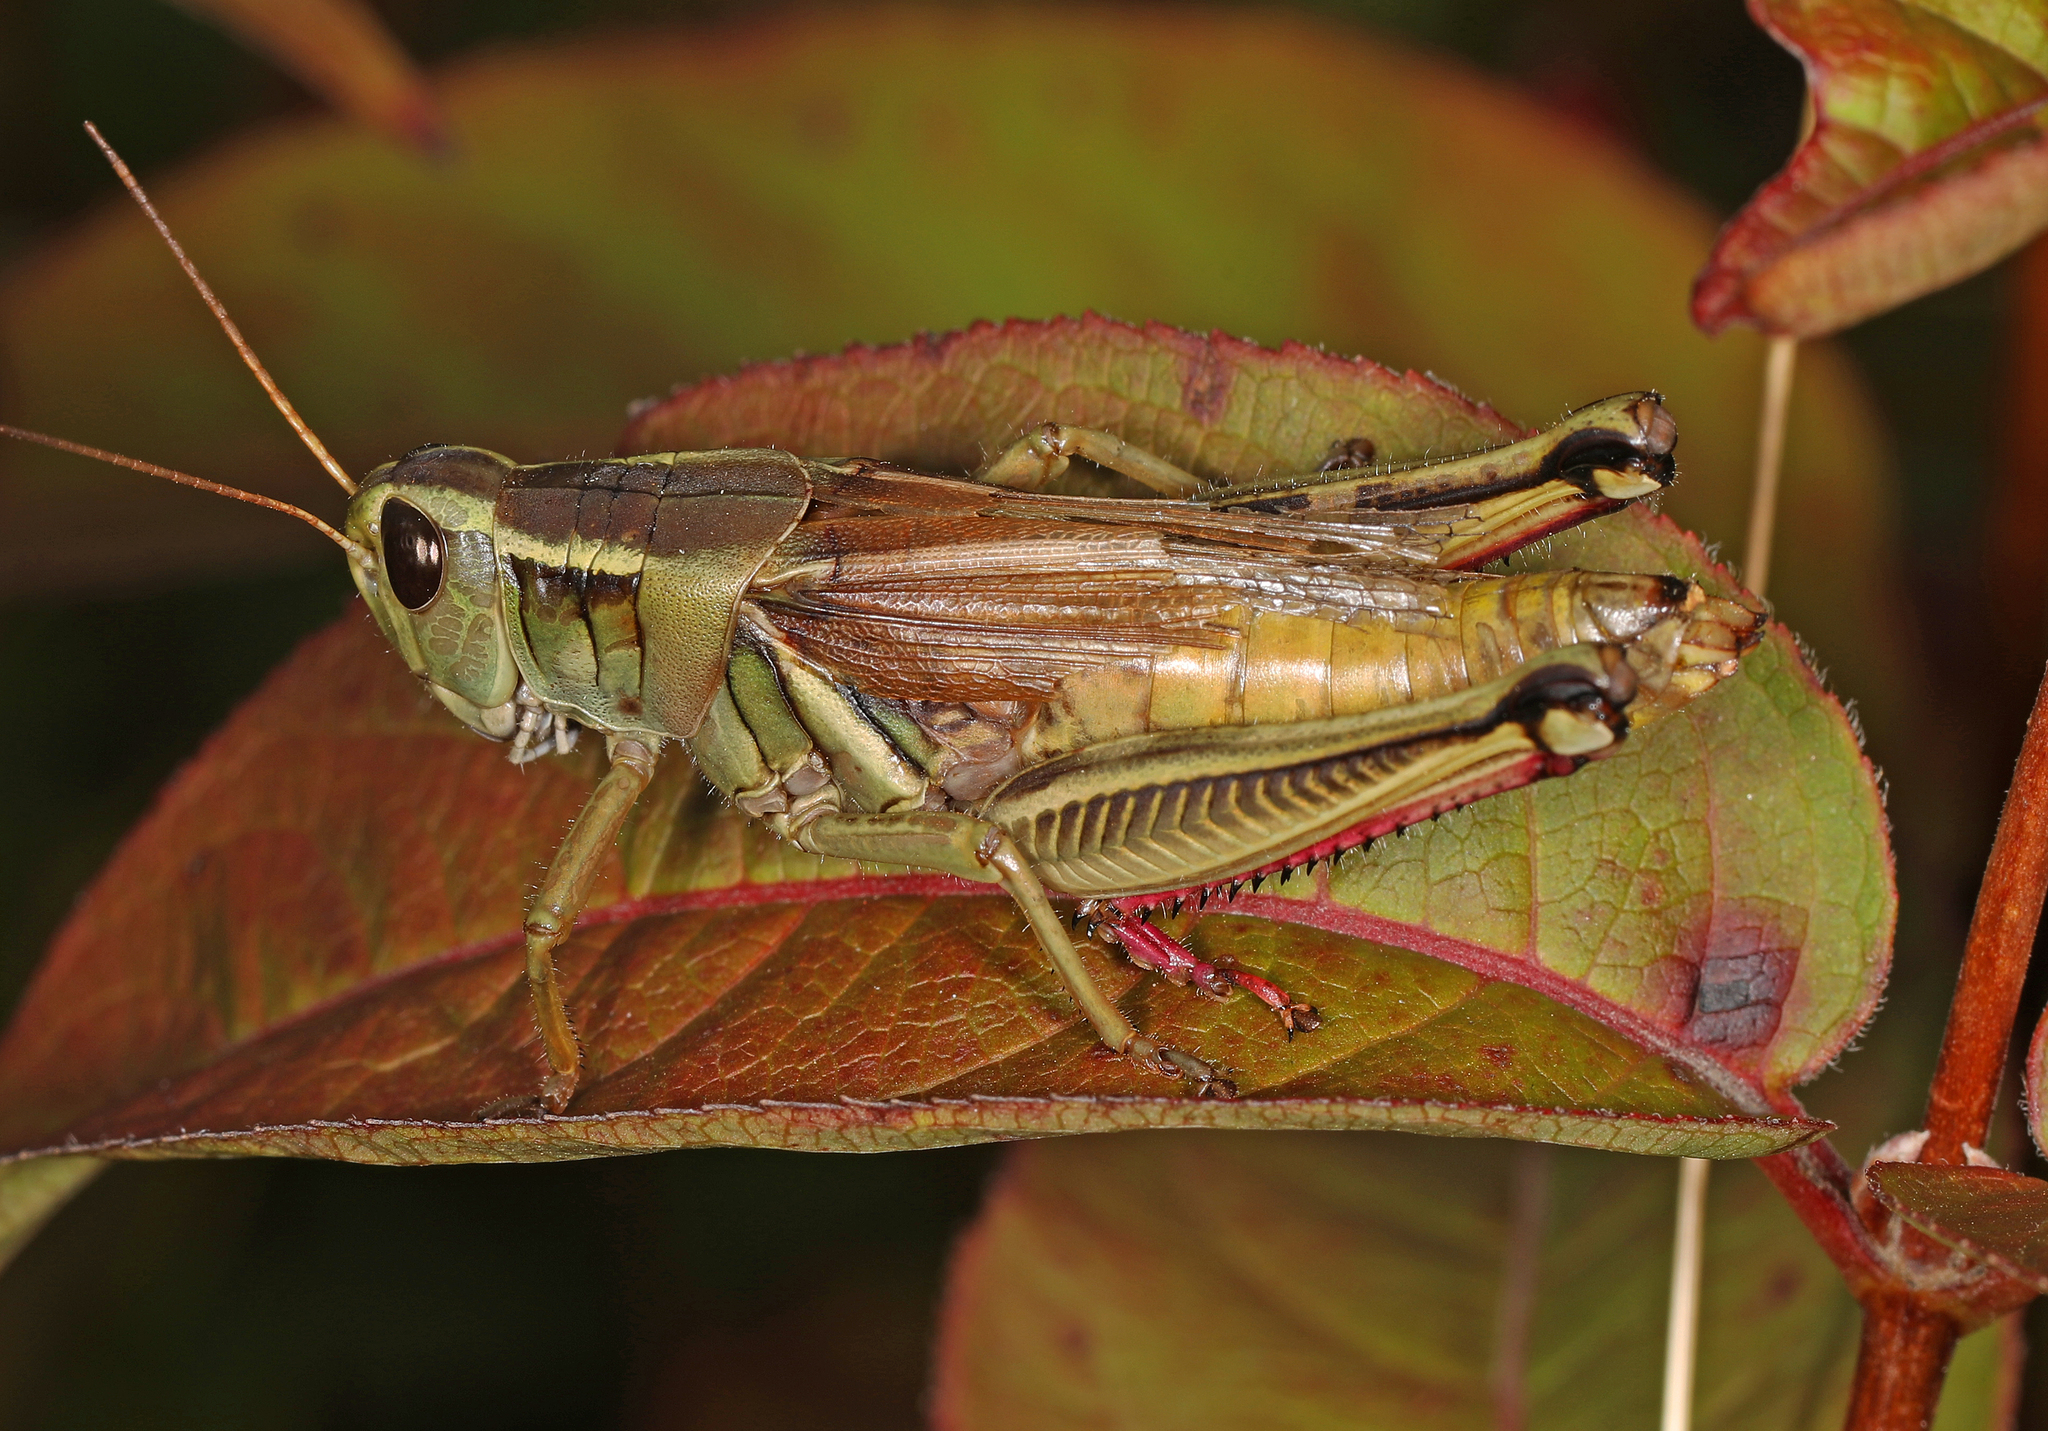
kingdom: Animalia
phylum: Arthropoda
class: Insecta
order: Orthoptera
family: Acrididae
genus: Melanoplus
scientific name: Melanoplus bivittatus
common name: Two-striped grasshopper
